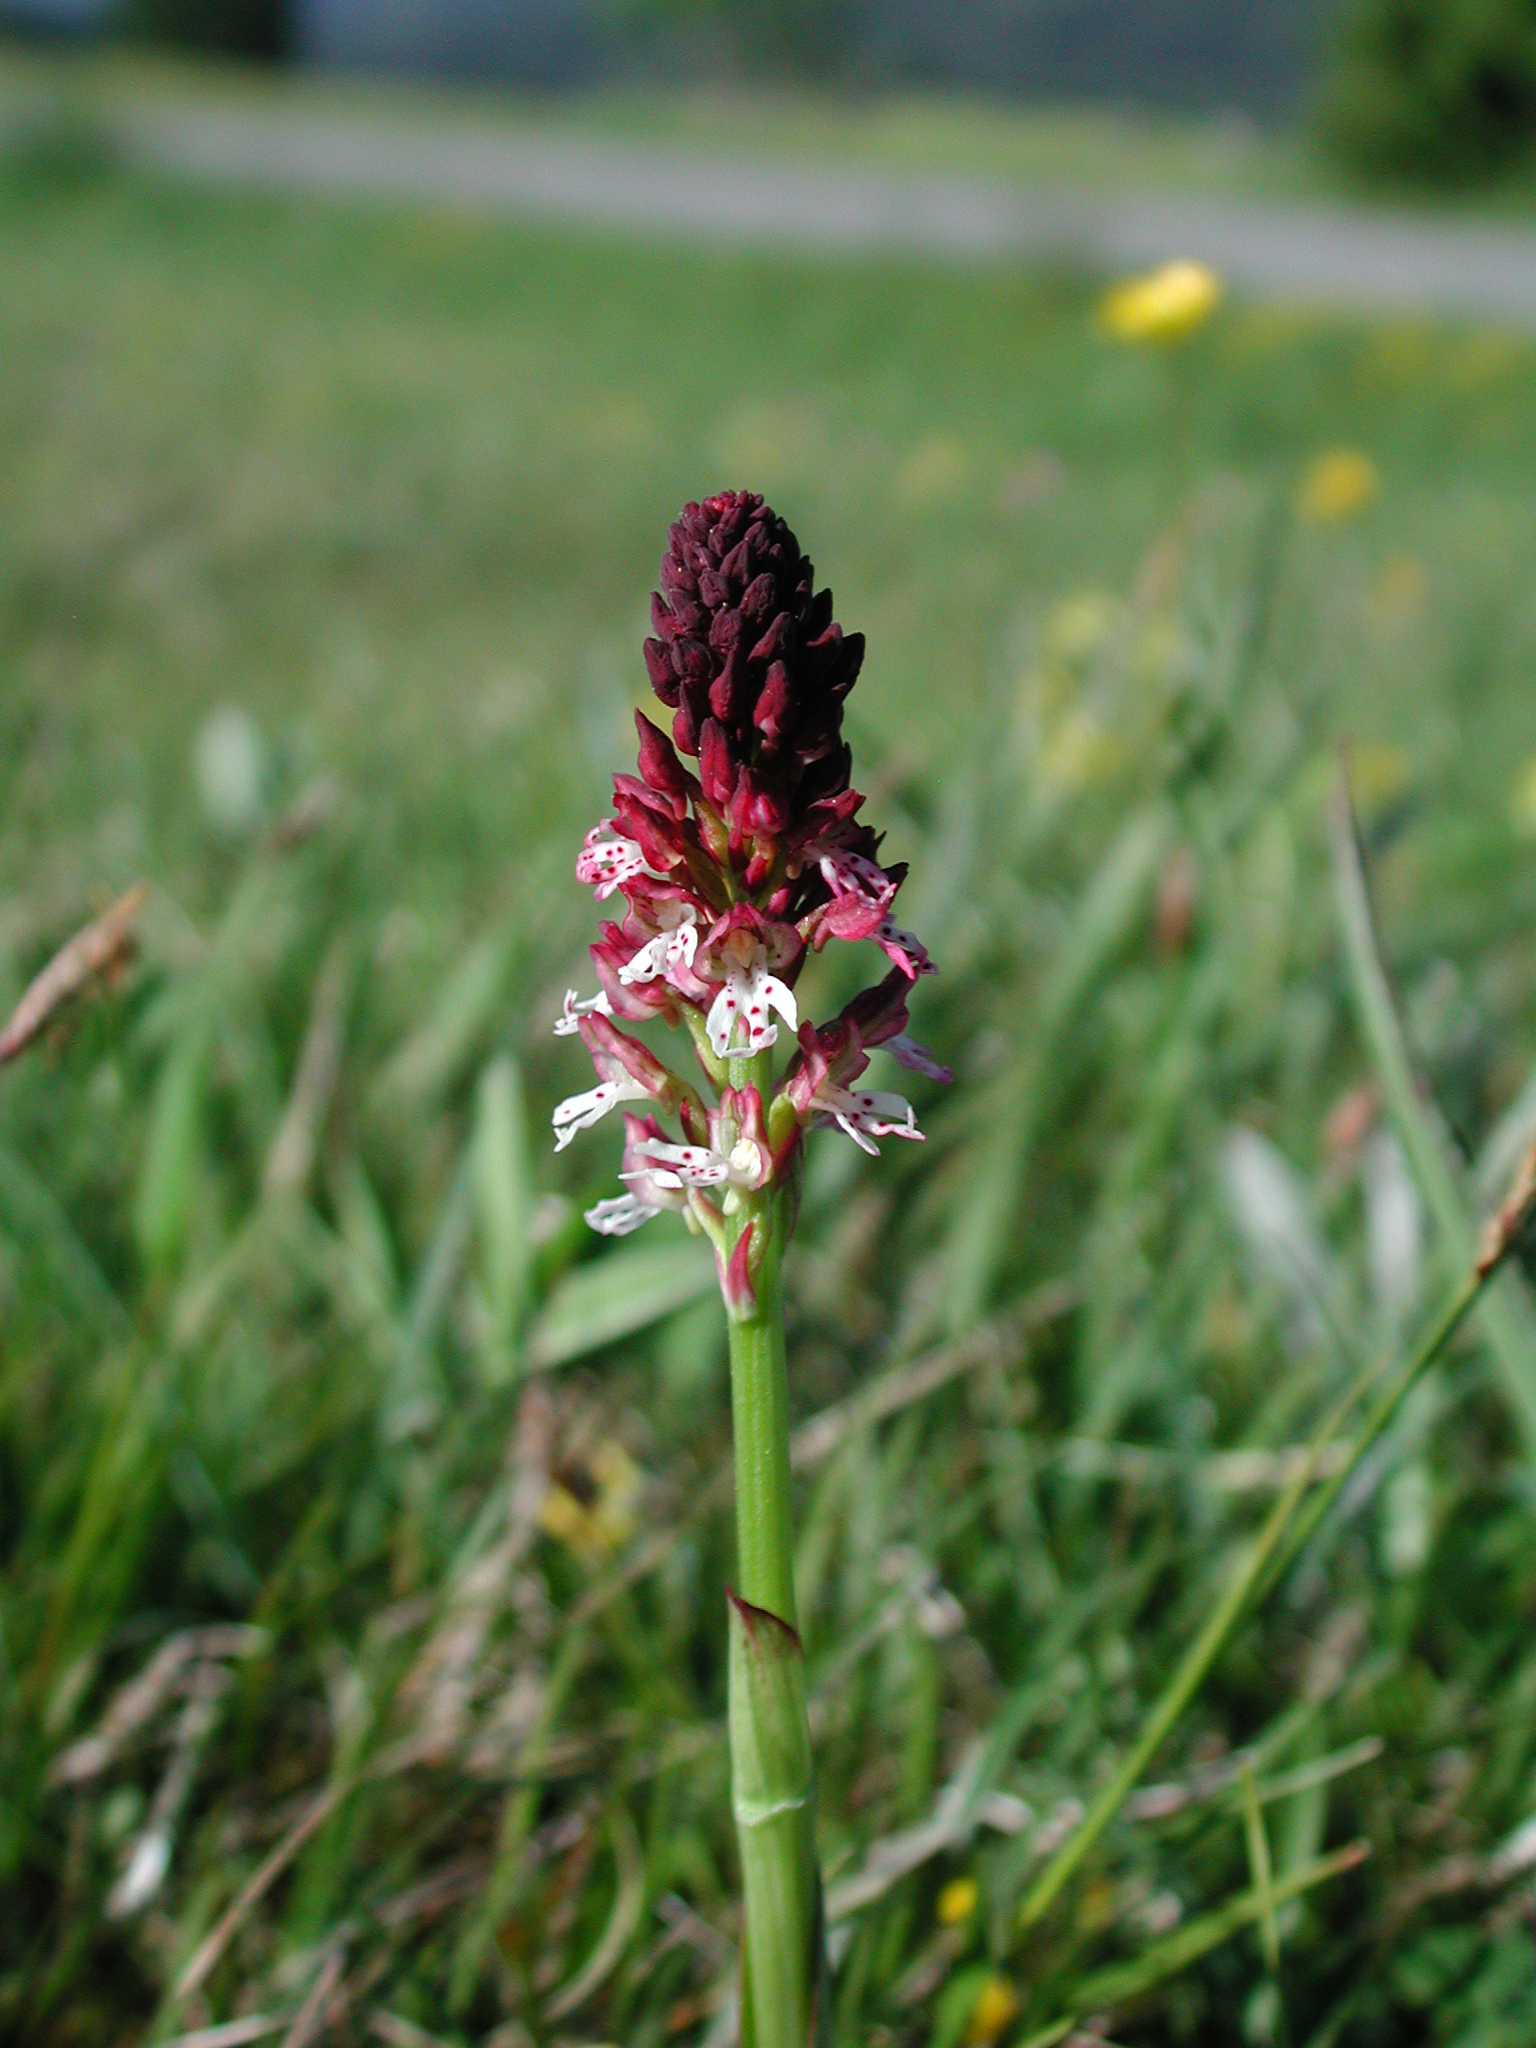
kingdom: Plantae
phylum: Tracheophyta
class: Liliopsida
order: Asparagales
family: Orchidaceae
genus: Neotinea
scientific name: Neotinea ustulata
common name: Burnt orchid
